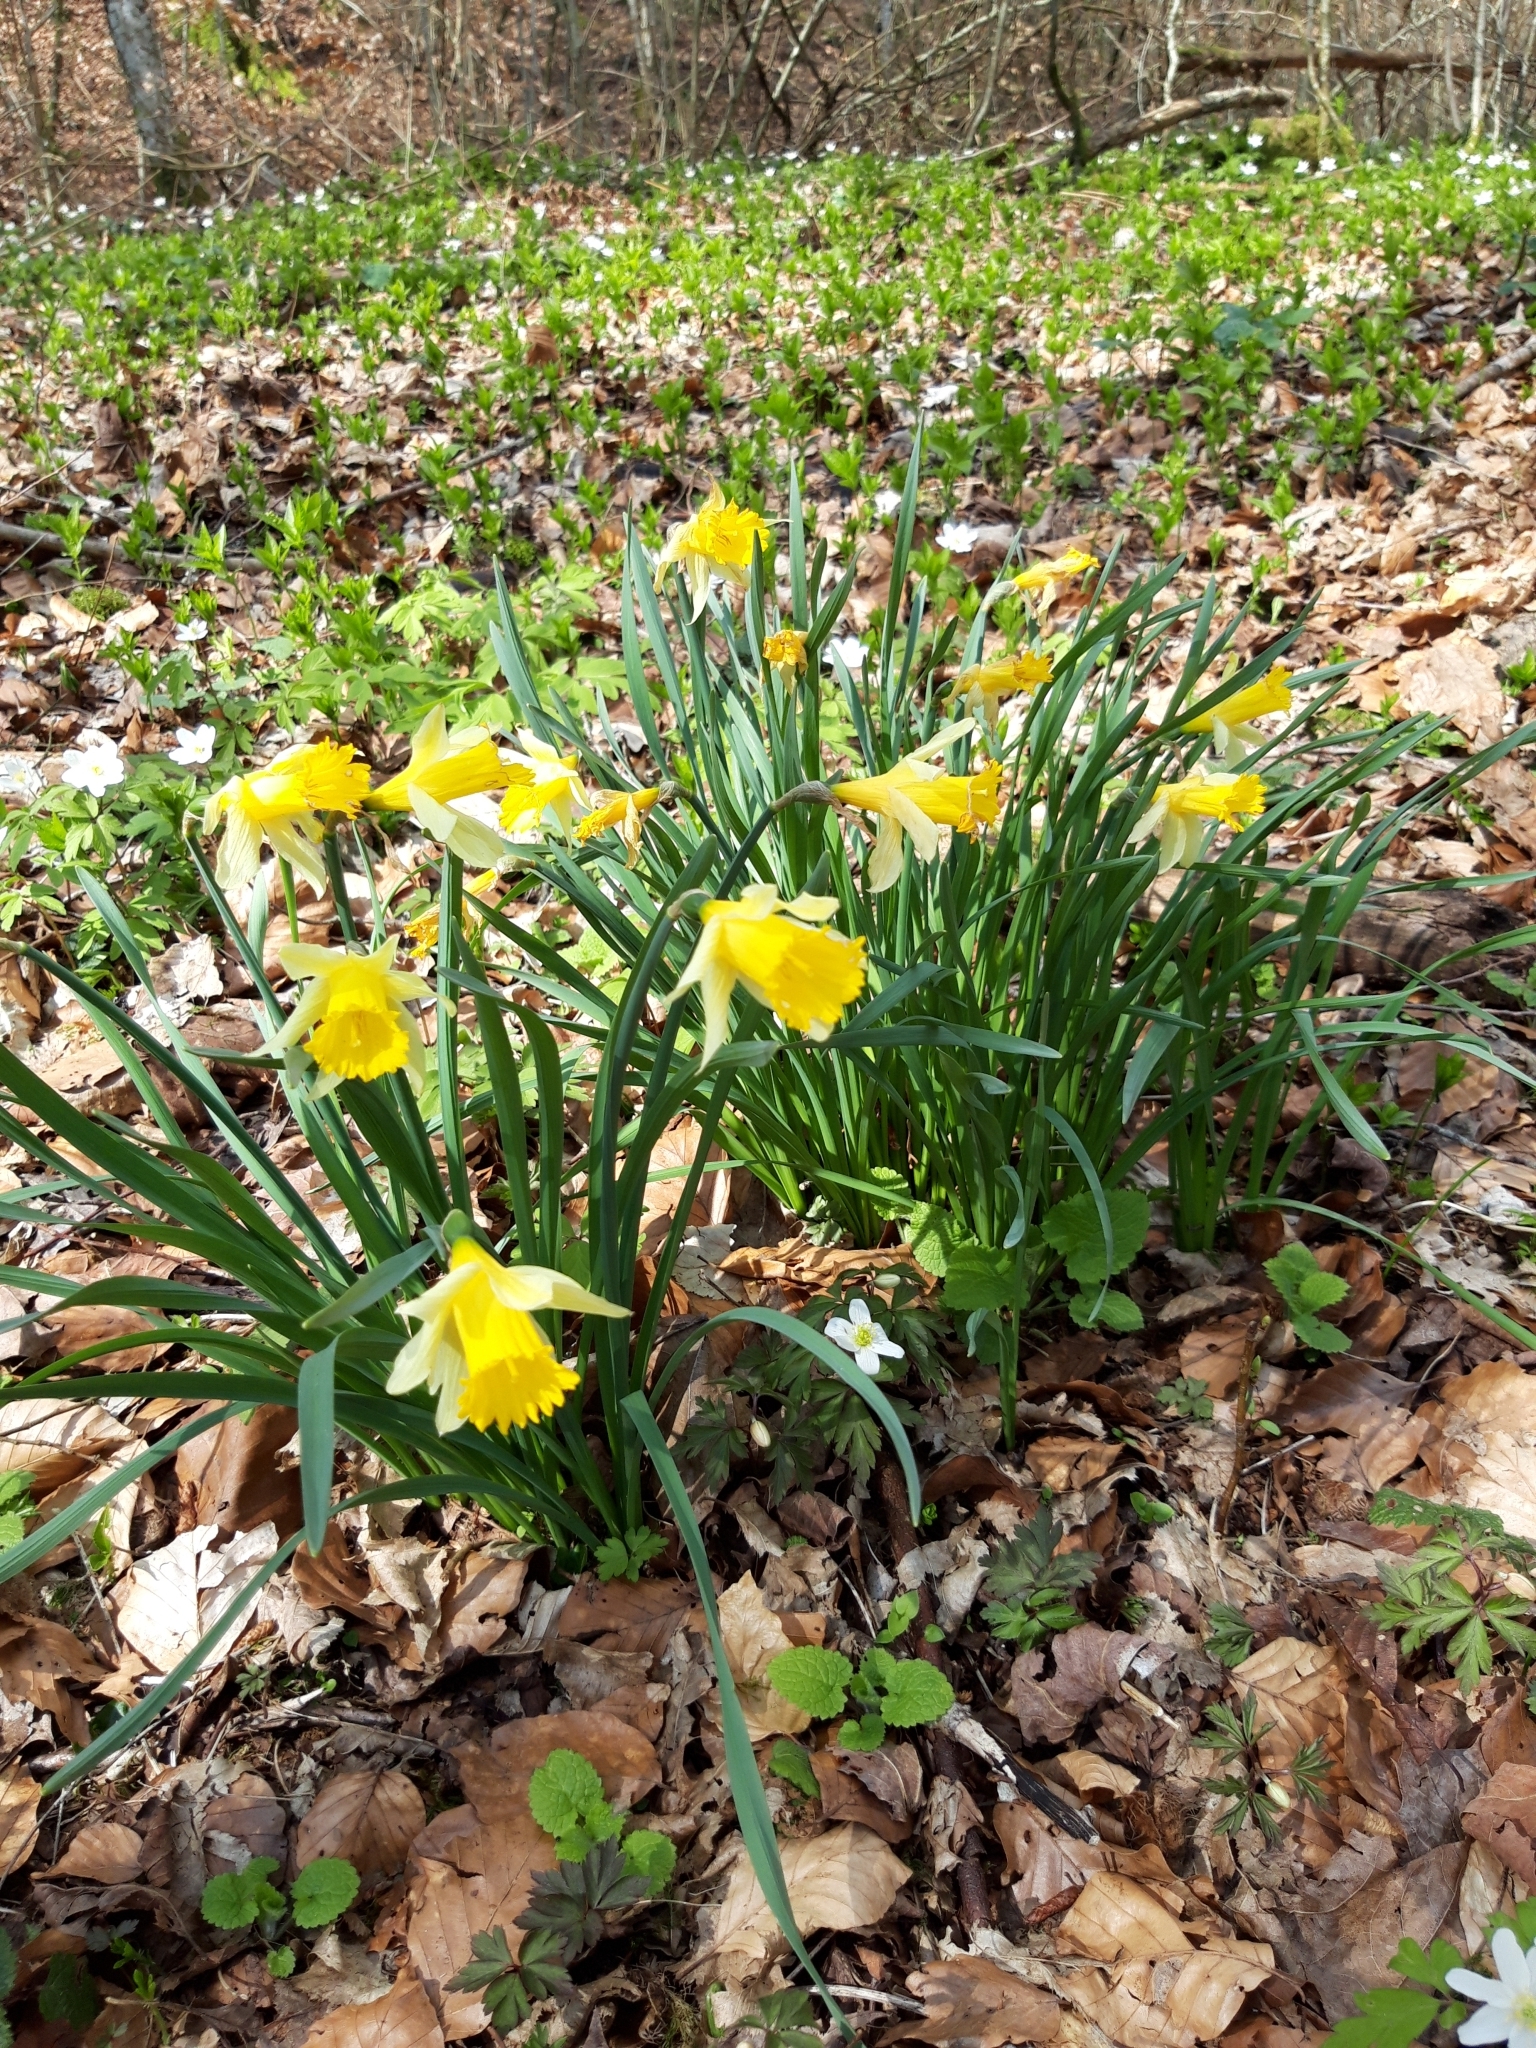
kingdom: Plantae
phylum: Tracheophyta
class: Liliopsida
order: Asparagales
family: Amaryllidaceae
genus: Narcissus
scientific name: Narcissus pseudonarcissus
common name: Daffodil
